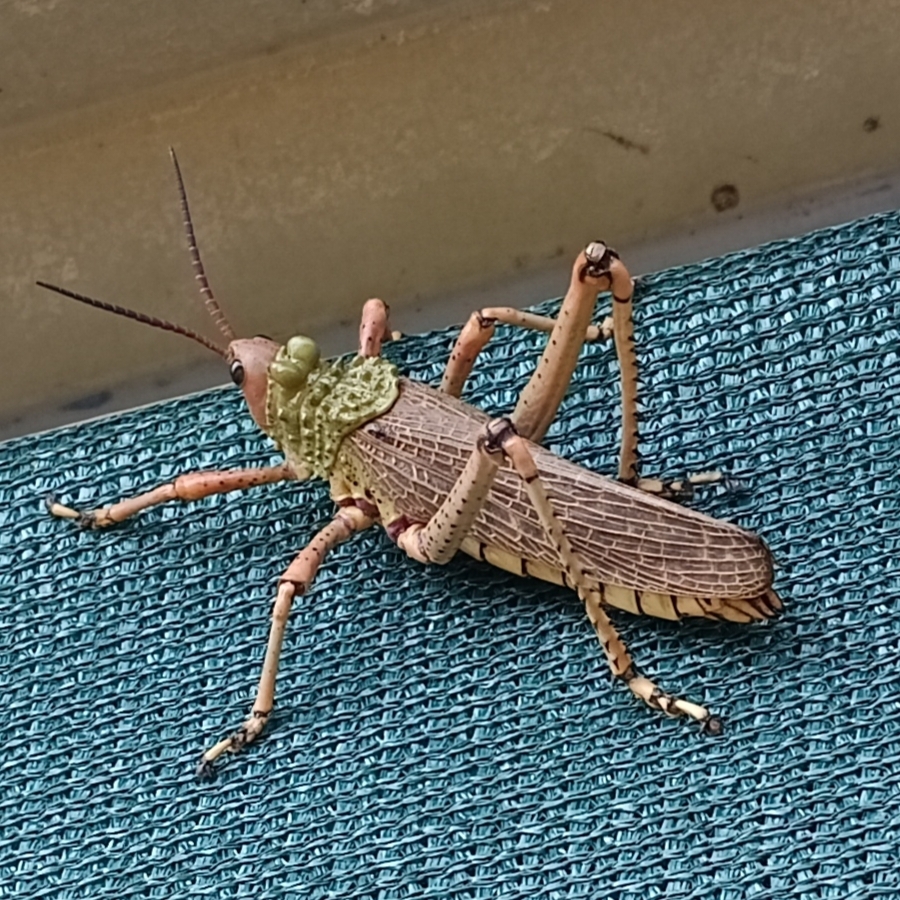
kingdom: Animalia
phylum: Arthropoda
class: Insecta
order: Orthoptera
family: Pyrgomorphidae
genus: Phymateus
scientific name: Phymateus leprosus
